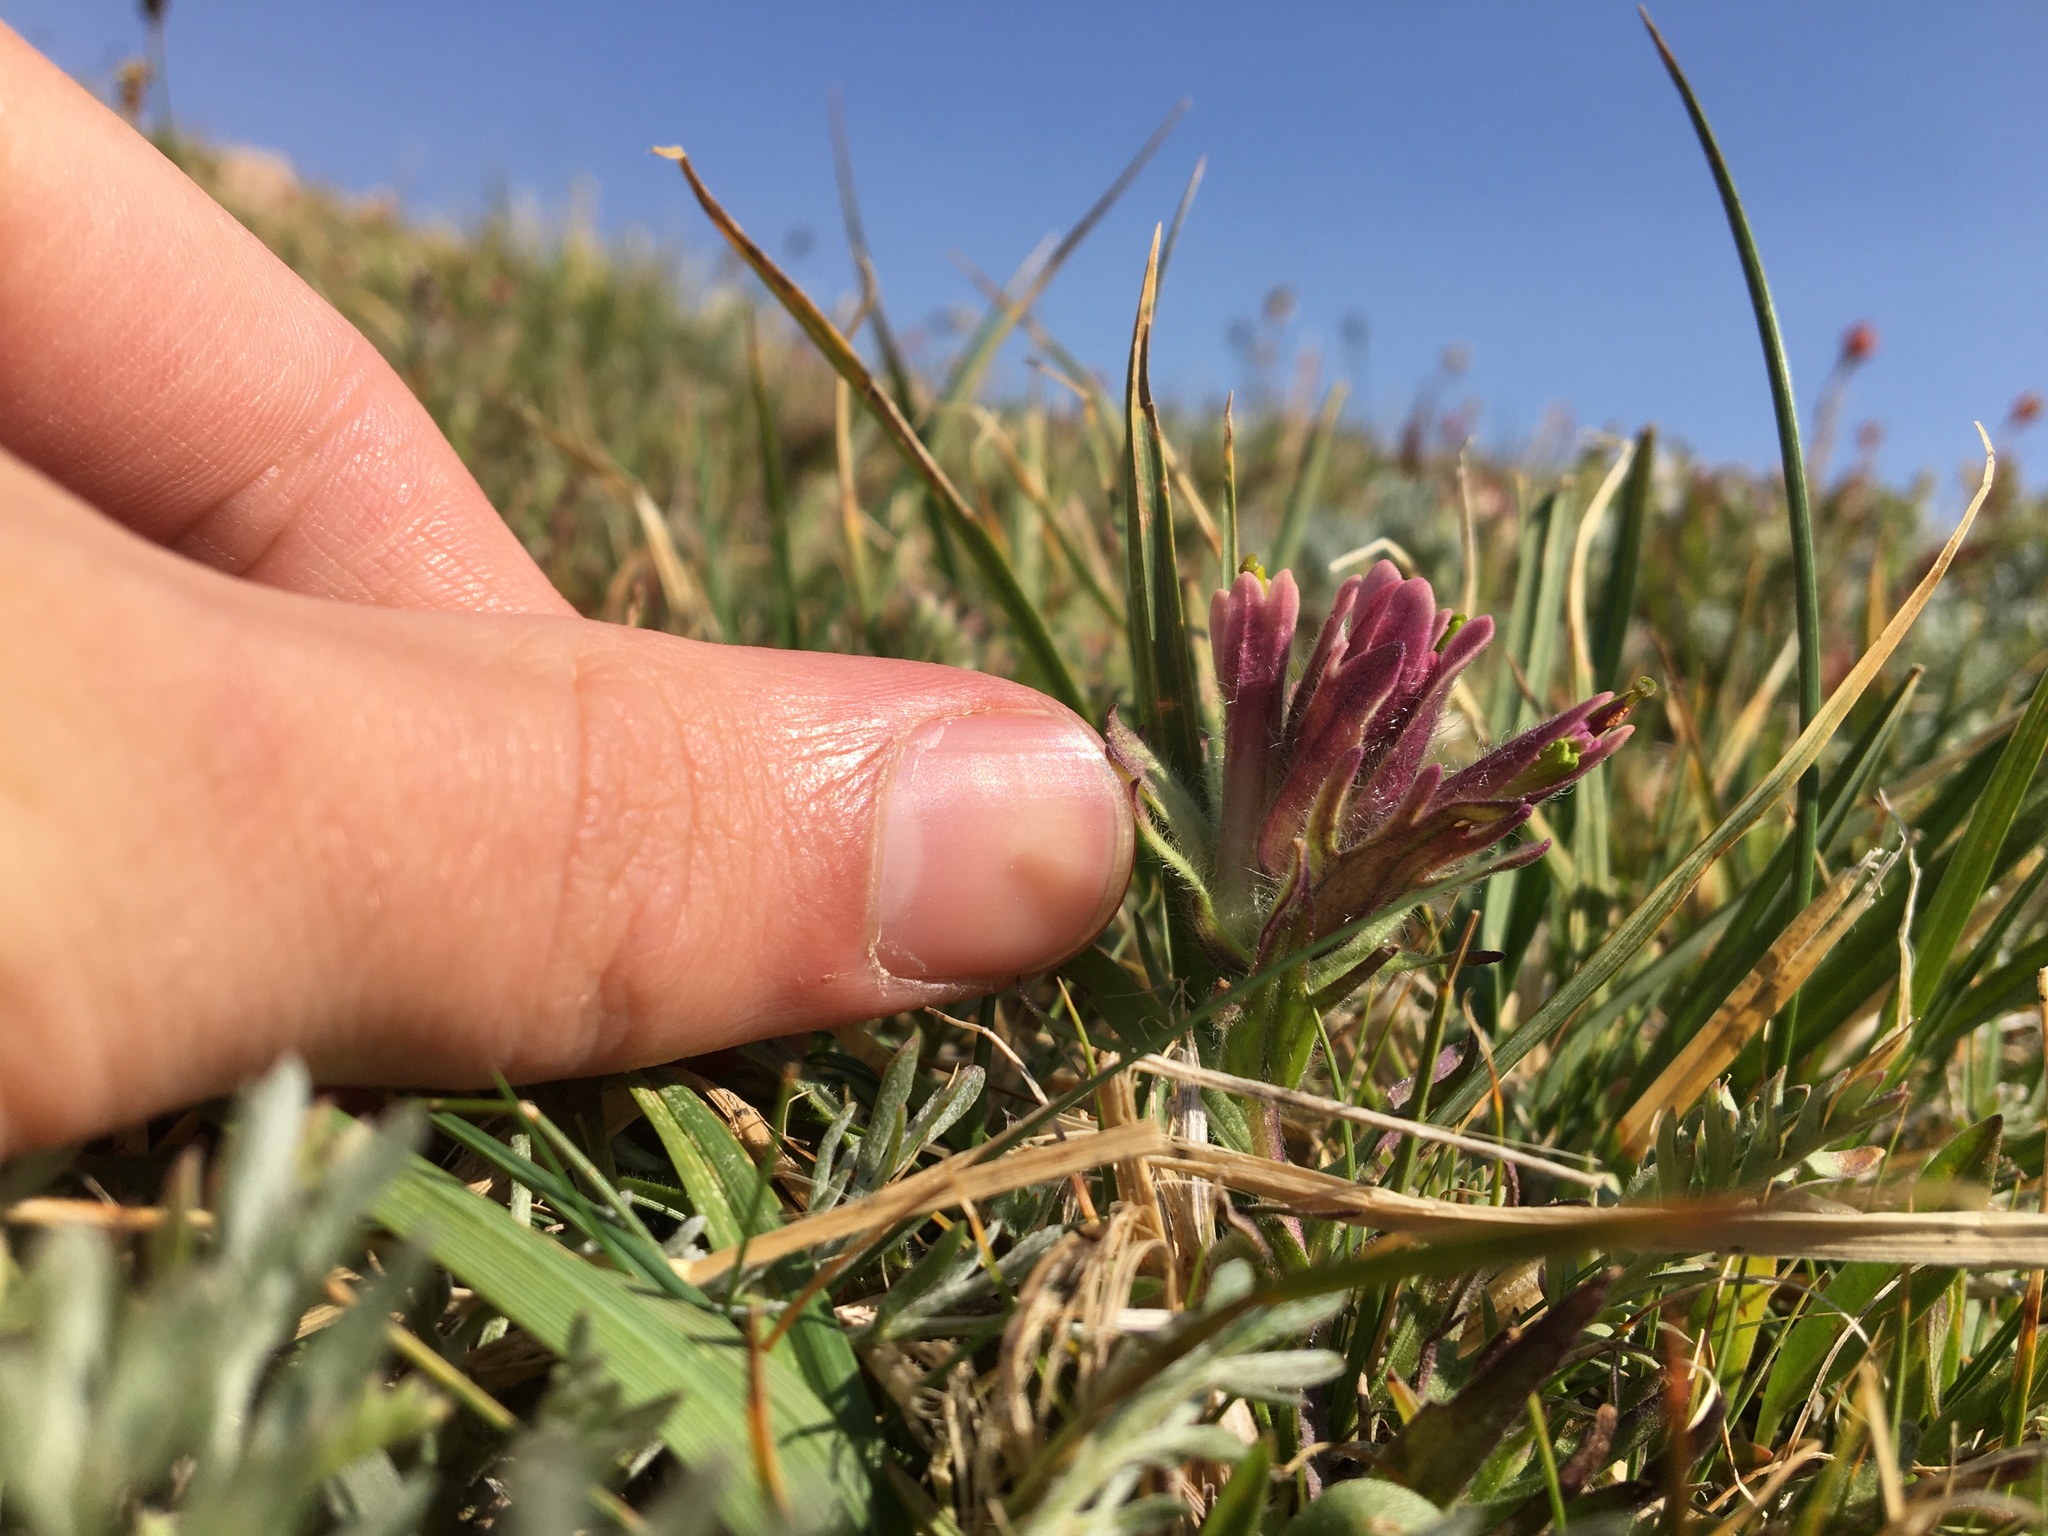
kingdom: Plantae
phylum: Tracheophyta
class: Magnoliopsida
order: Lamiales
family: Orobanchaceae
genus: Castilleja
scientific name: Castilleja pulchella
